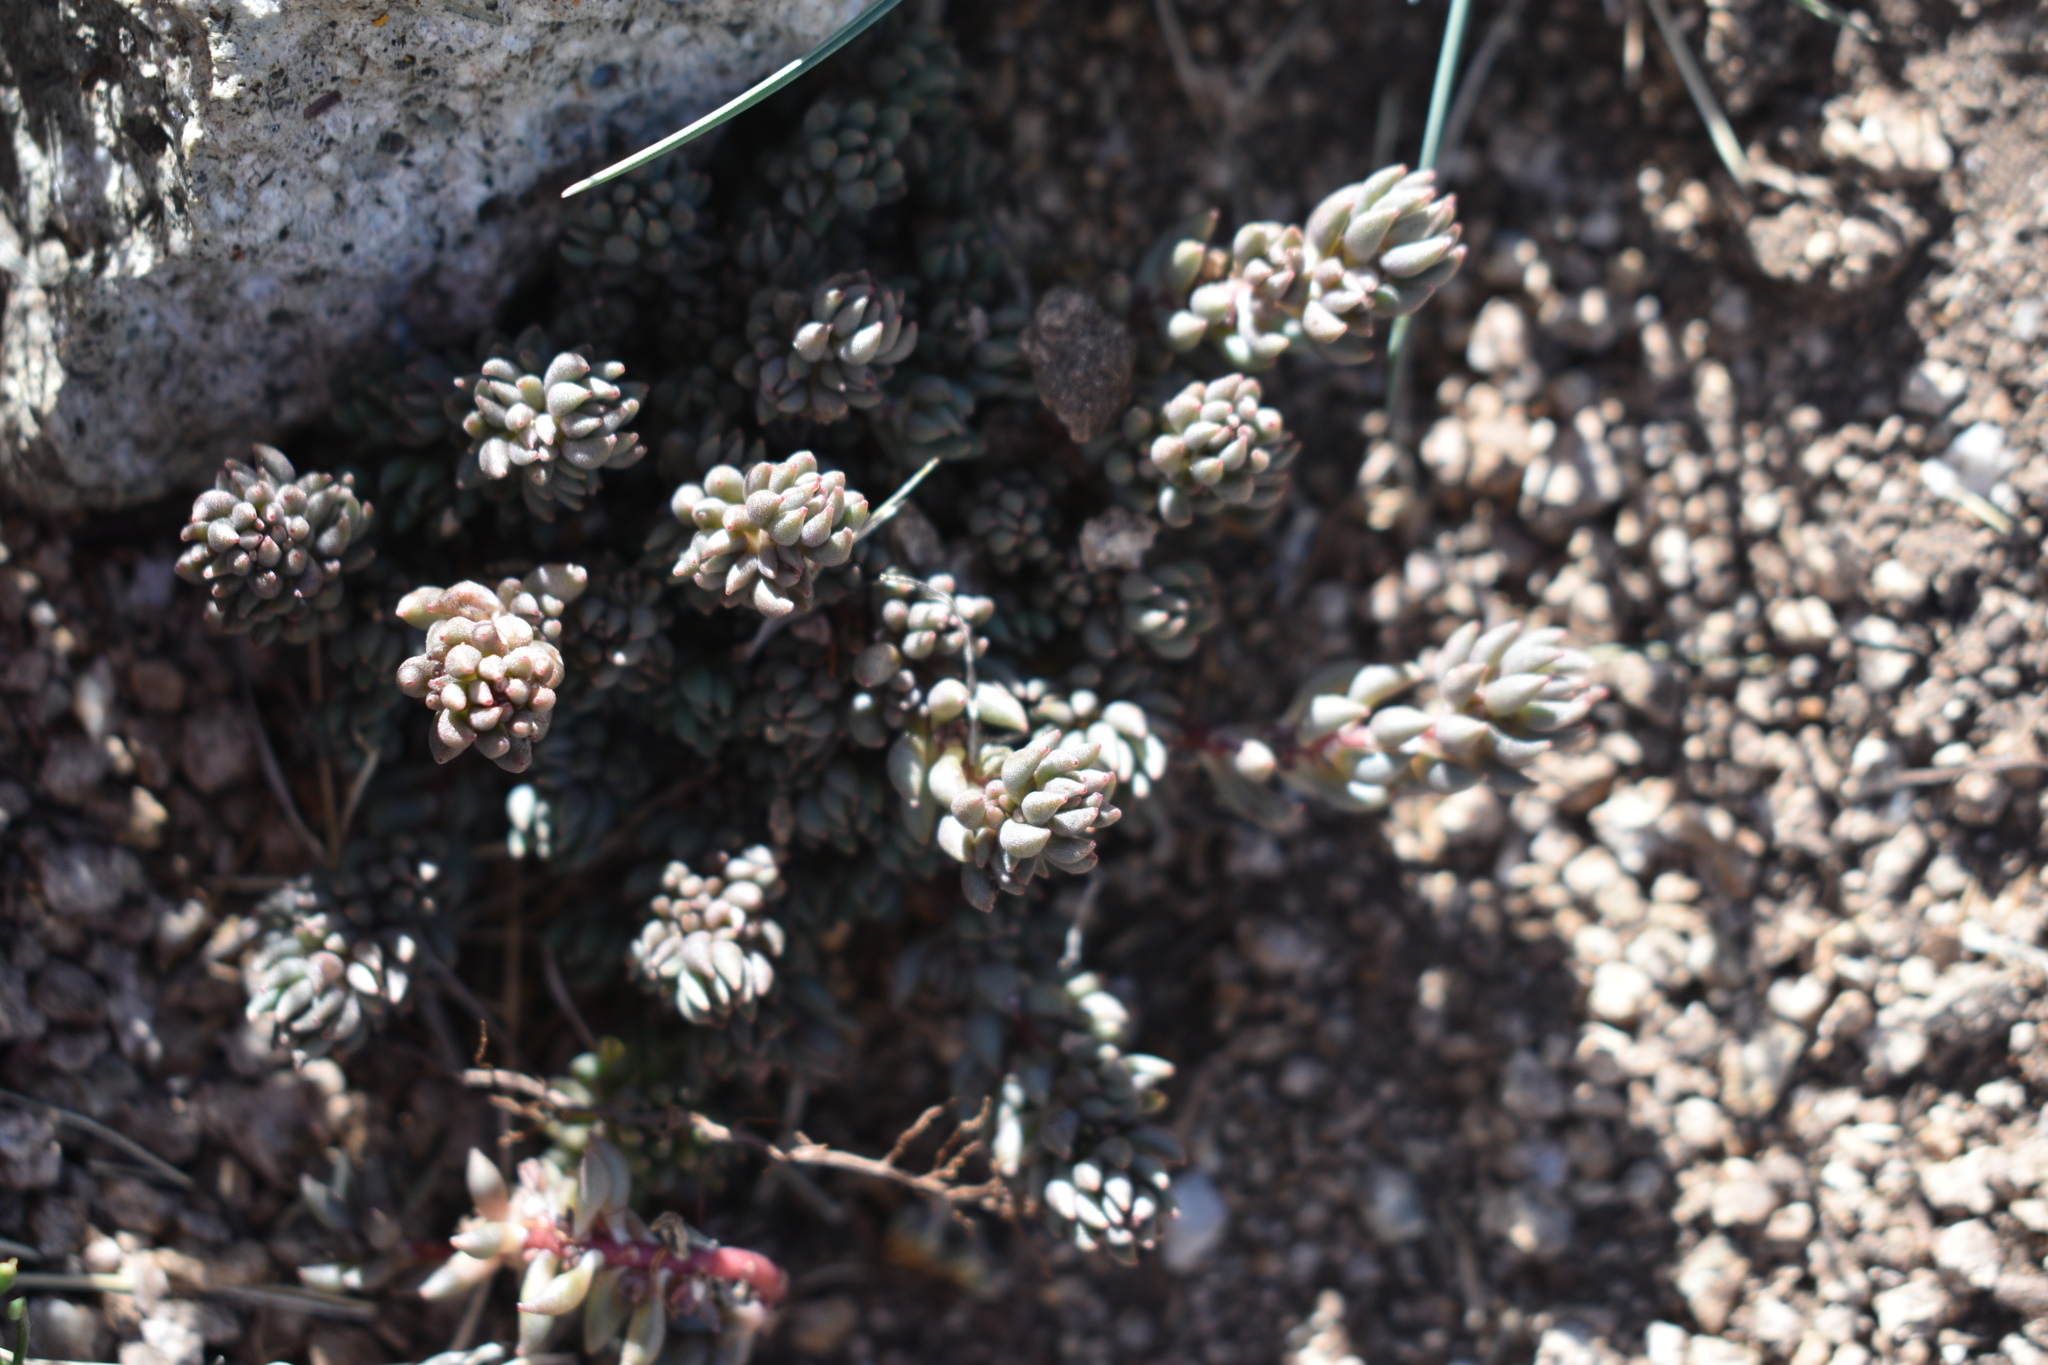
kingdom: Plantae
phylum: Tracheophyta
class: Magnoliopsida
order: Saxifragales
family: Crassulaceae
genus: Sedum
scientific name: Sedum lanceolatum
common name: Common stonecrop
